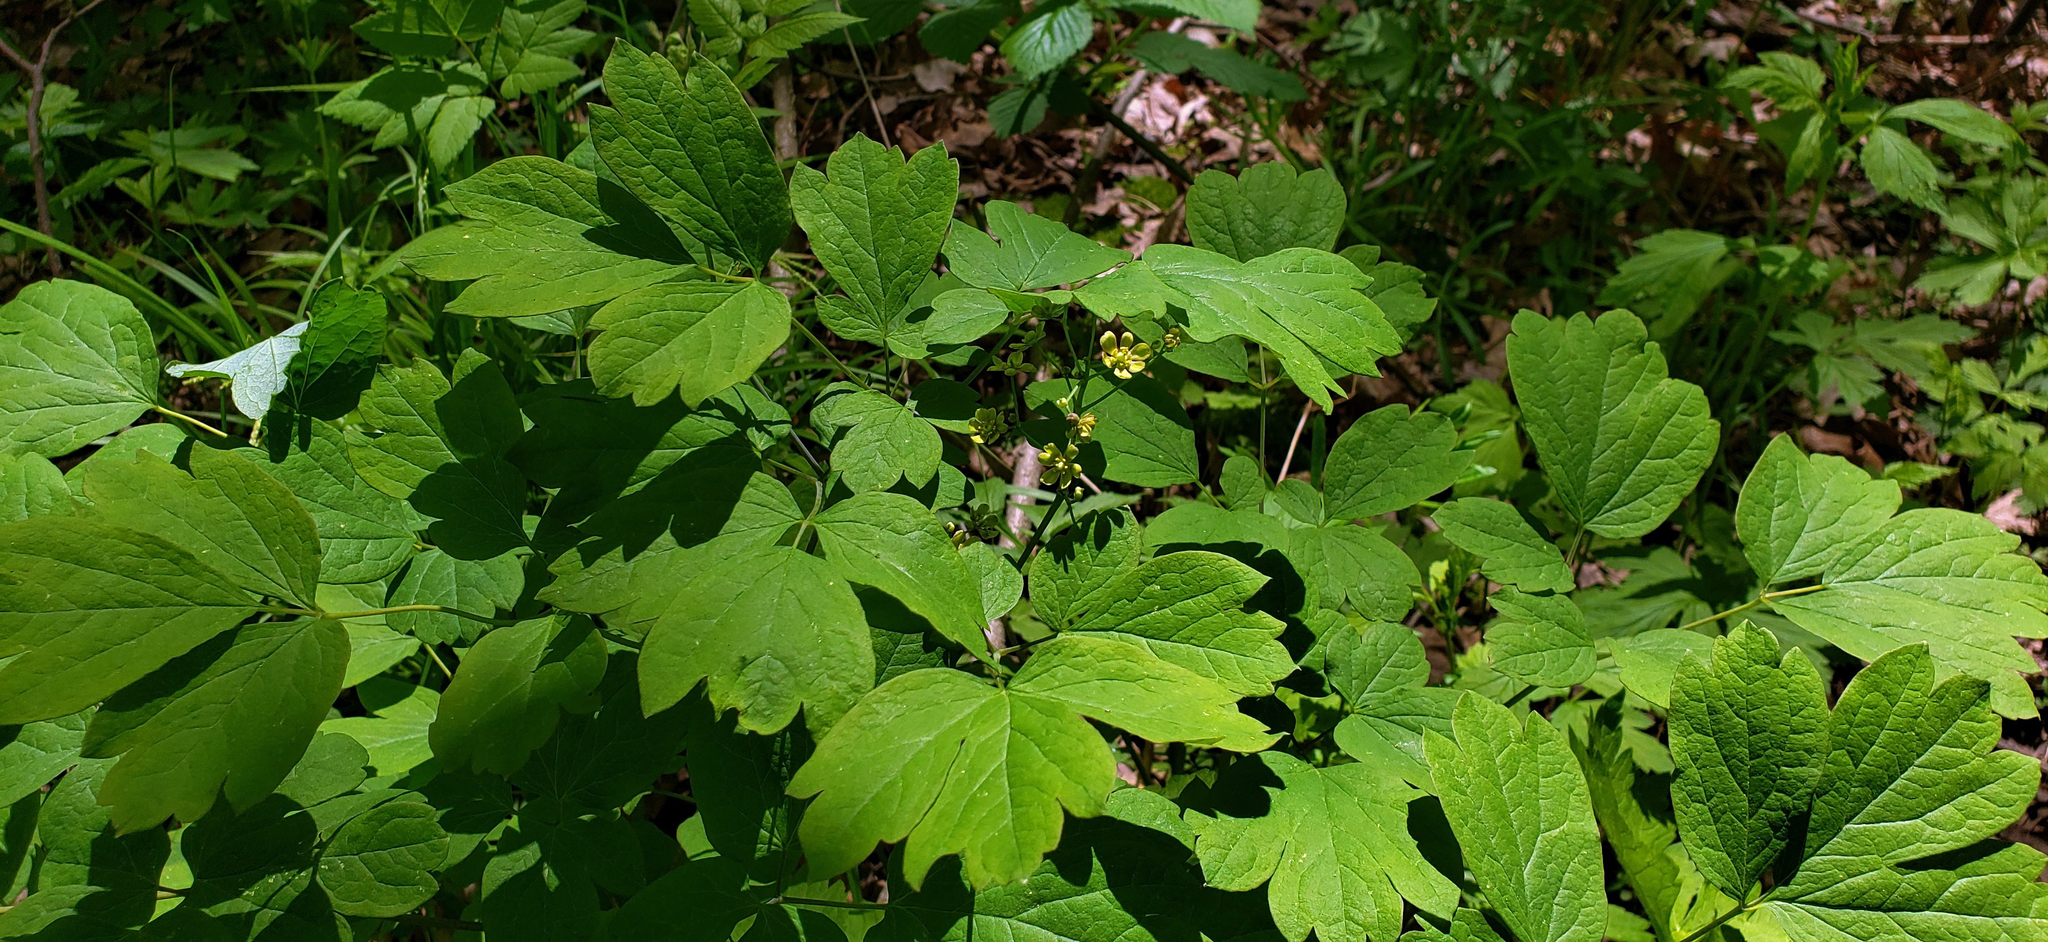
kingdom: Plantae
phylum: Tracheophyta
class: Magnoliopsida
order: Ranunculales
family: Berberidaceae
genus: Caulophyllum
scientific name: Caulophyllum thalictroides
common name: Blue cohosh
